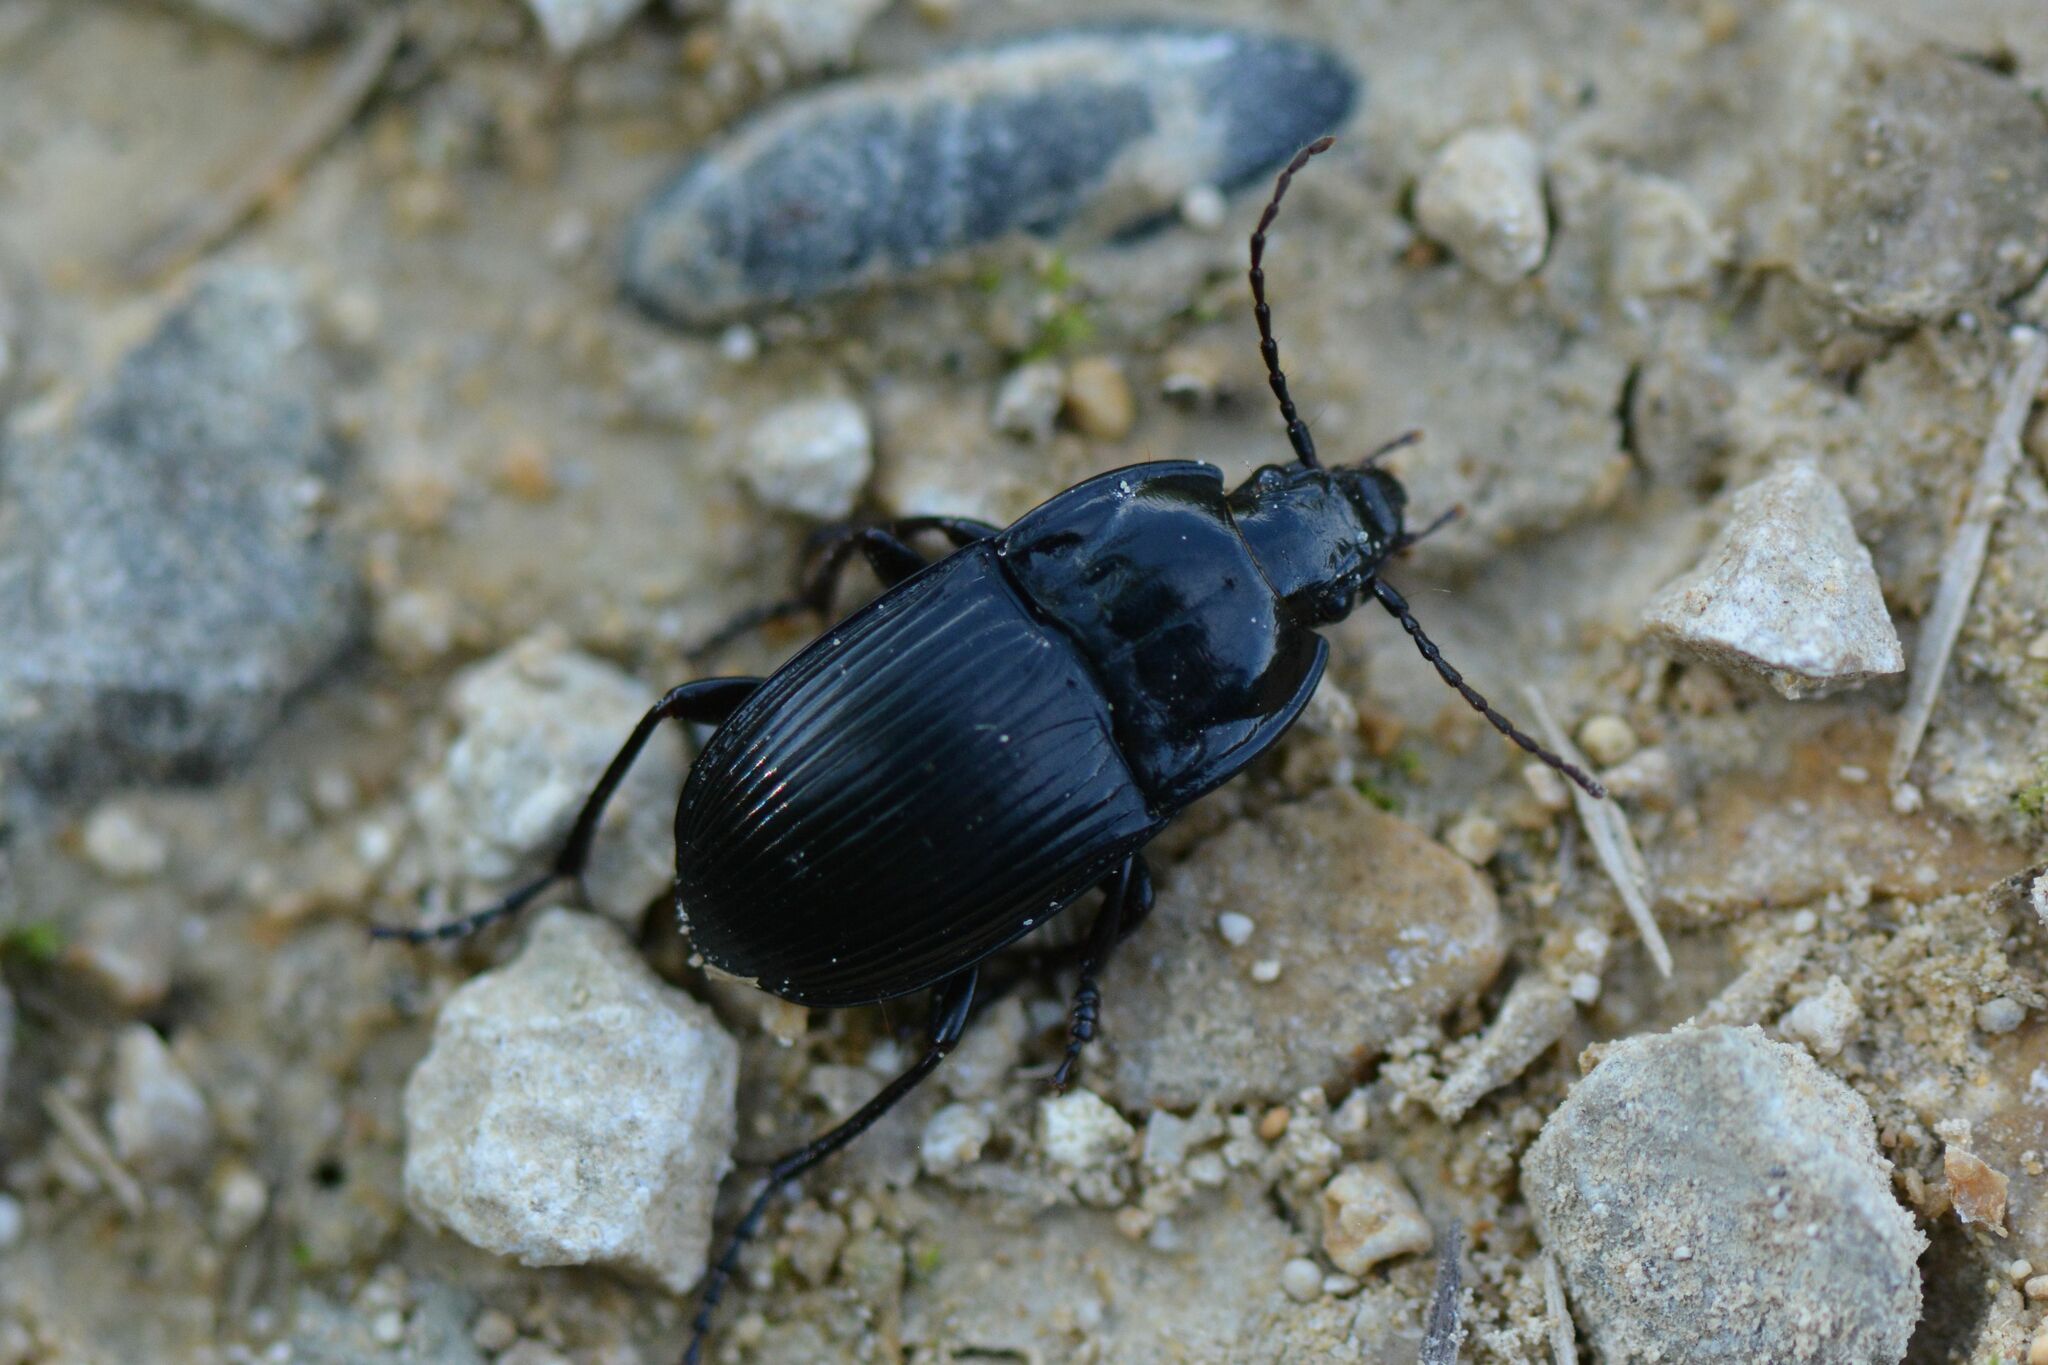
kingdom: Animalia
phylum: Arthropoda
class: Insecta
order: Coleoptera
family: Carabidae
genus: Abax
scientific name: Abax ovalis
